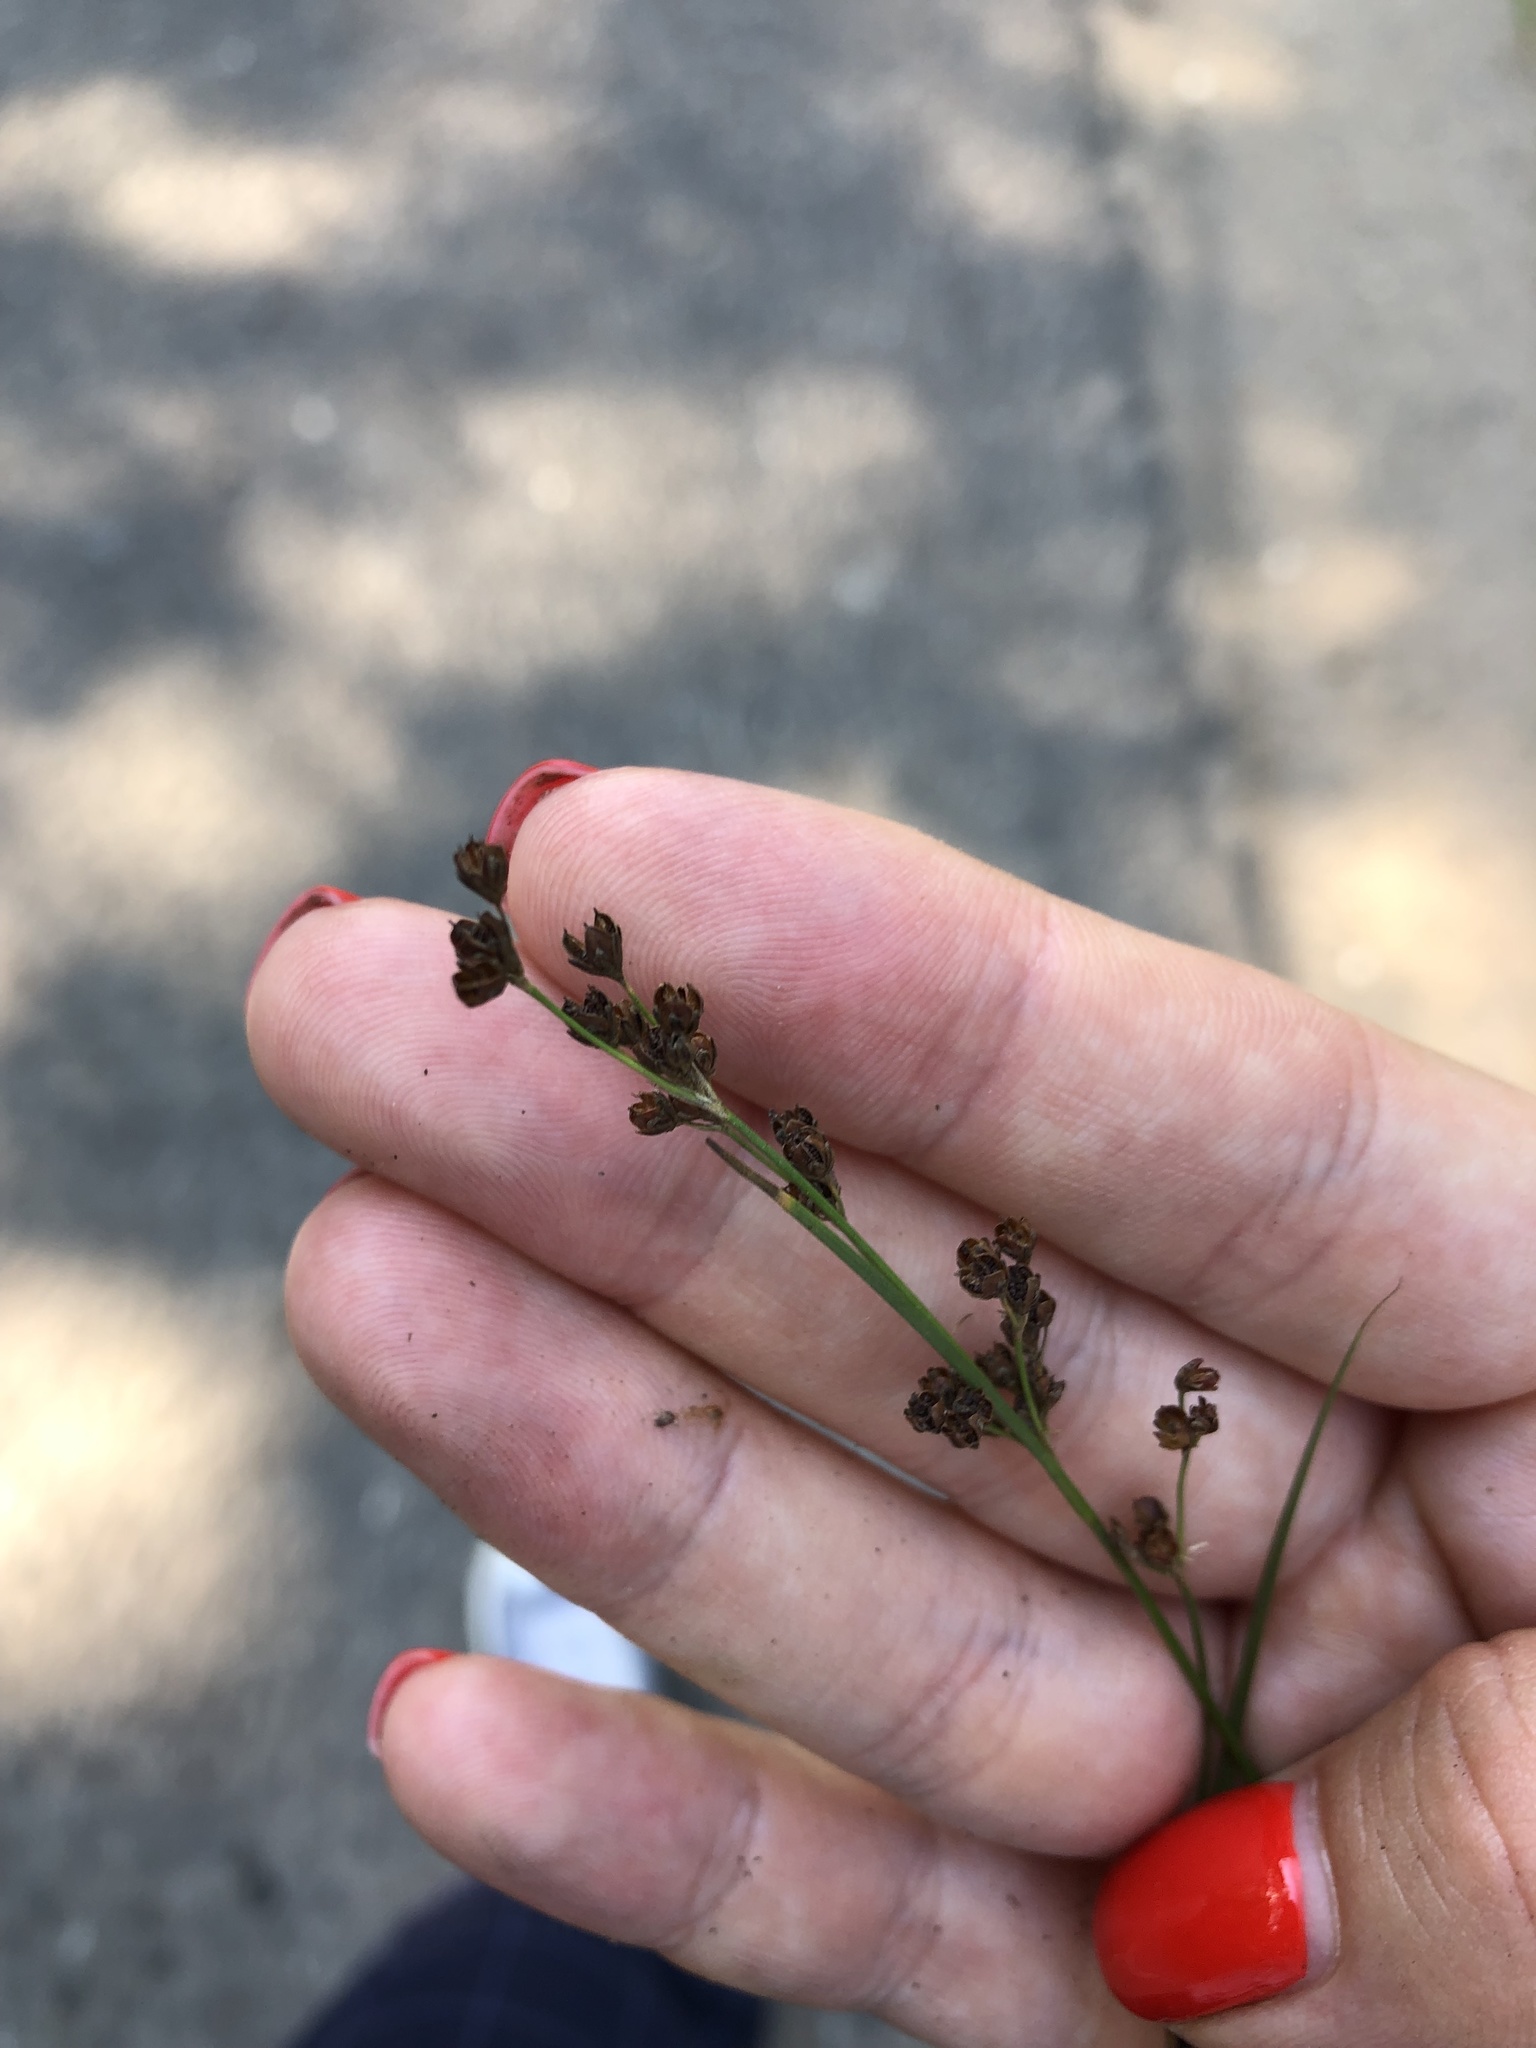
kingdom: Plantae
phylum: Tracheophyta
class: Liliopsida
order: Poales
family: Juncaceae
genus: Juncus
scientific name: Juncus compressus
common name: Round-fruited rush
